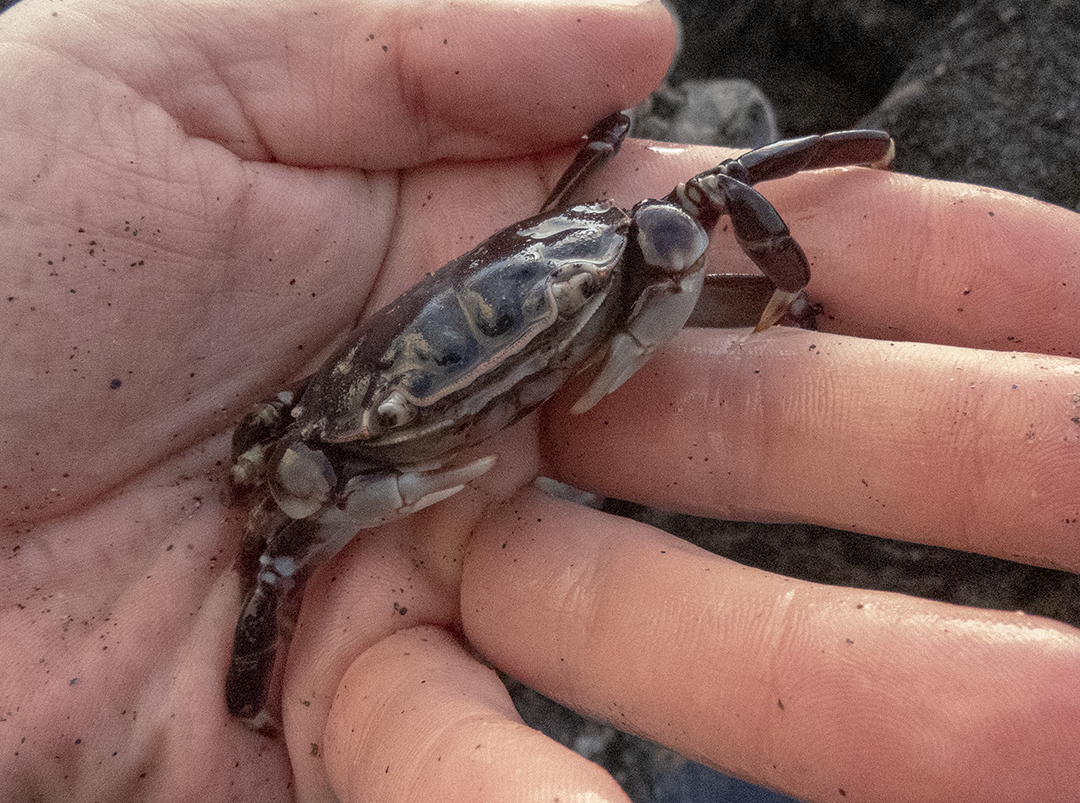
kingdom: Animalia
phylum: Arthropoda
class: Malacostraca
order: Decapoda
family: Varunidae
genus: Hemigrapsus
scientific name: Hemigrapsus sexdentatus
